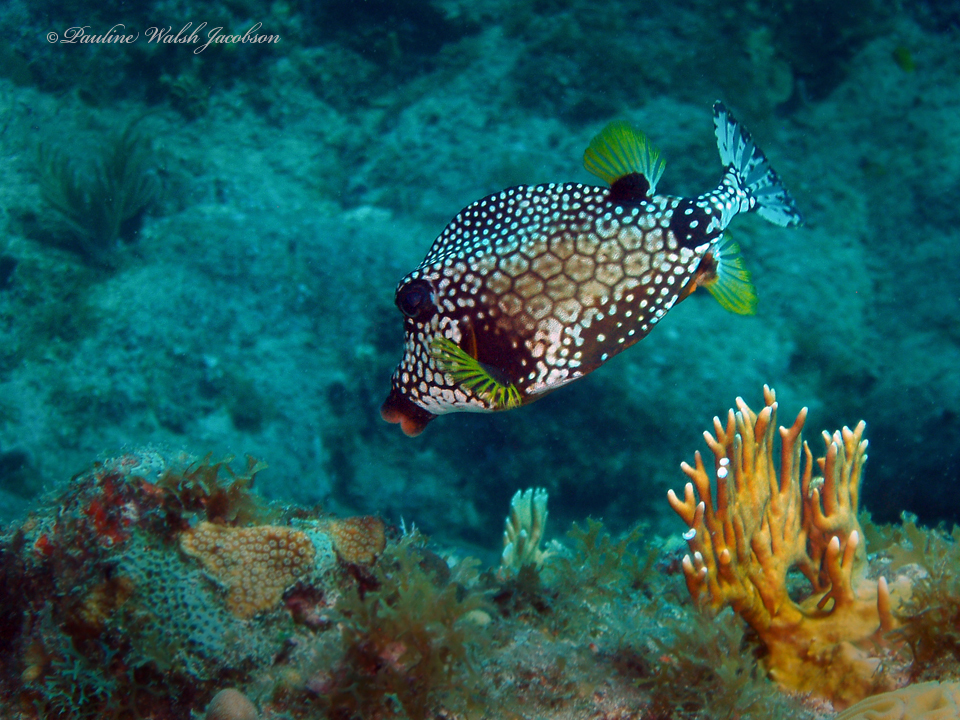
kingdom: Animalia
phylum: Chordata
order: Tetraodontiformes
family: Ostraciidae
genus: Lactophrys
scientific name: Lactophrys triqueter
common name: Smooth trunkfish
